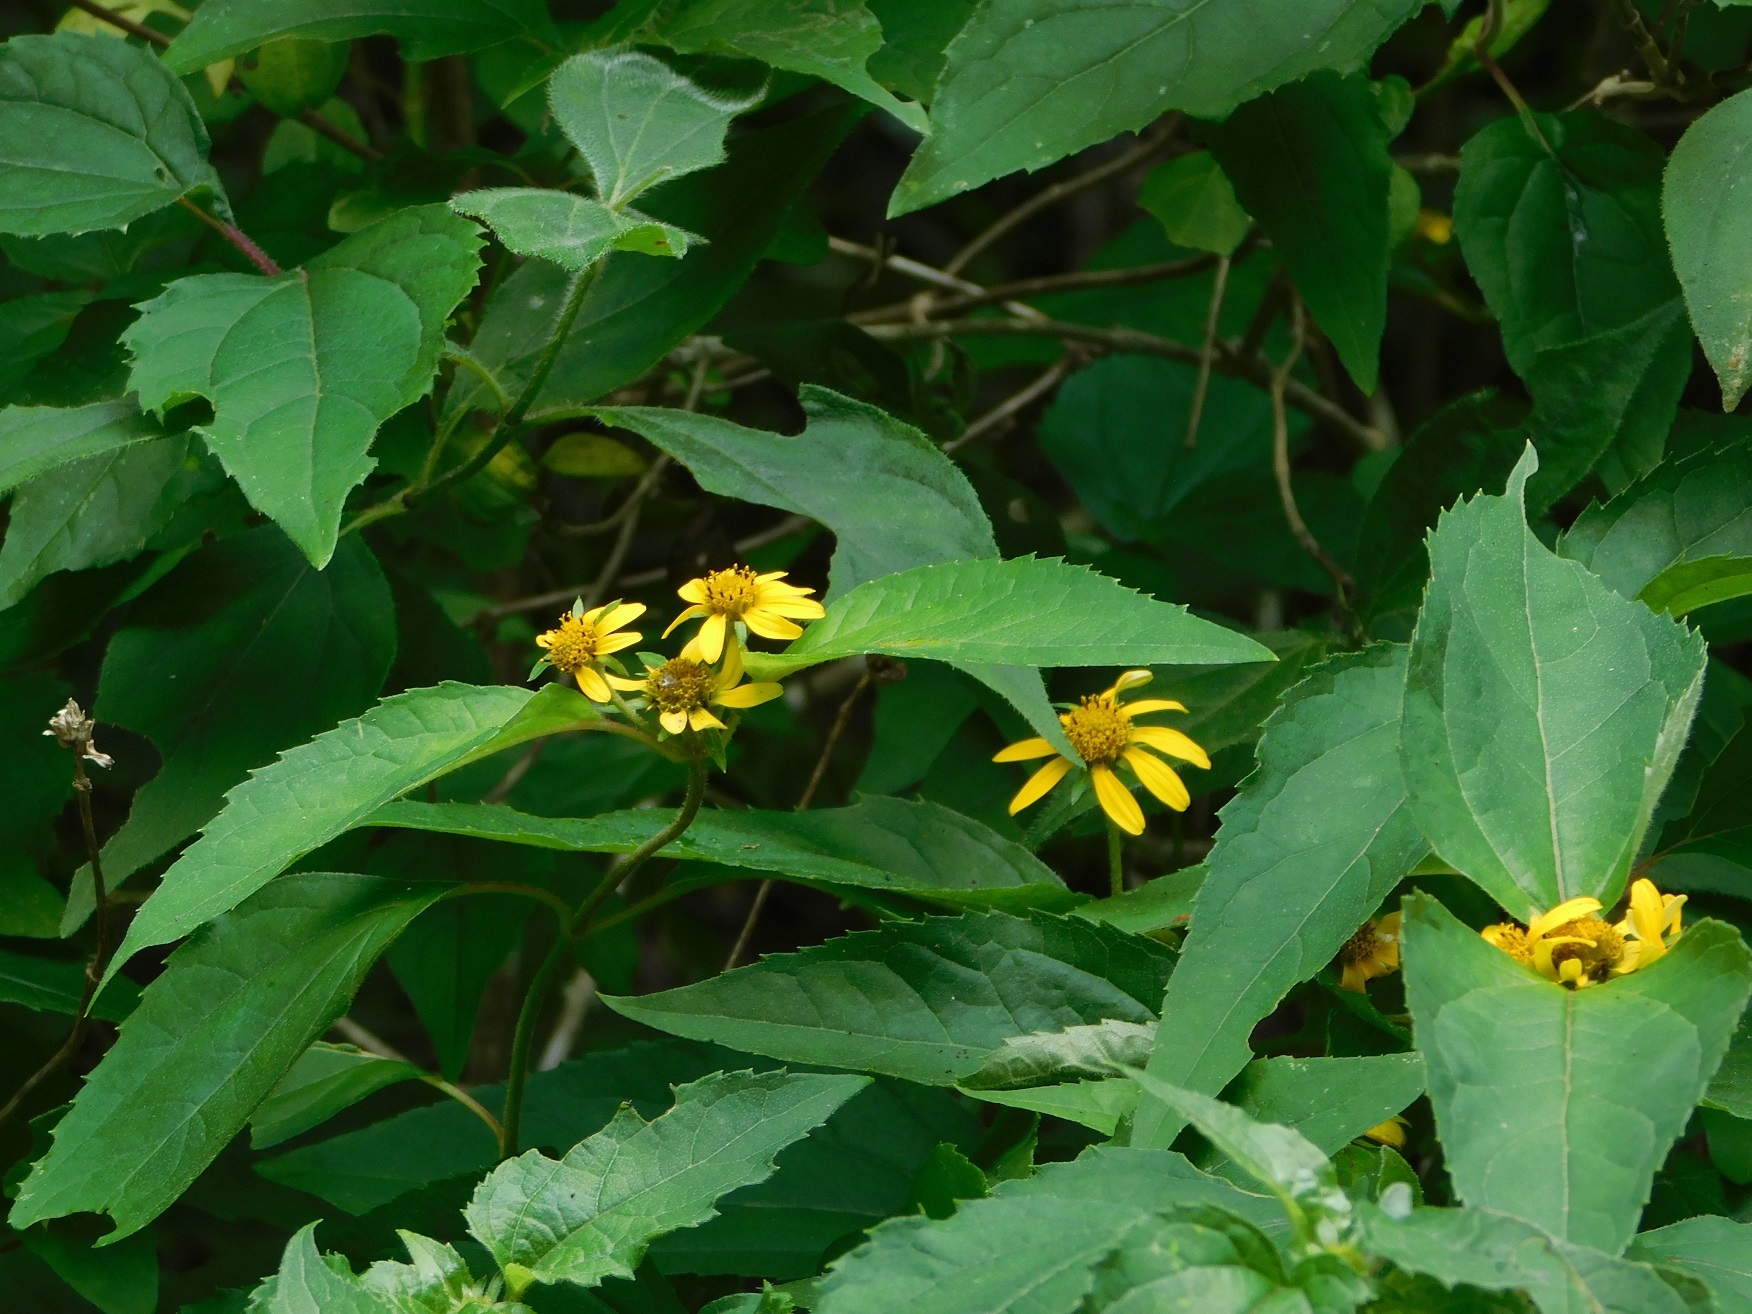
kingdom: Plantae
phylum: Tracheophyta
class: Magnoliopsida
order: Asterales
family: Asteraceae
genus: Philactis
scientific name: Philactis zinnioides
